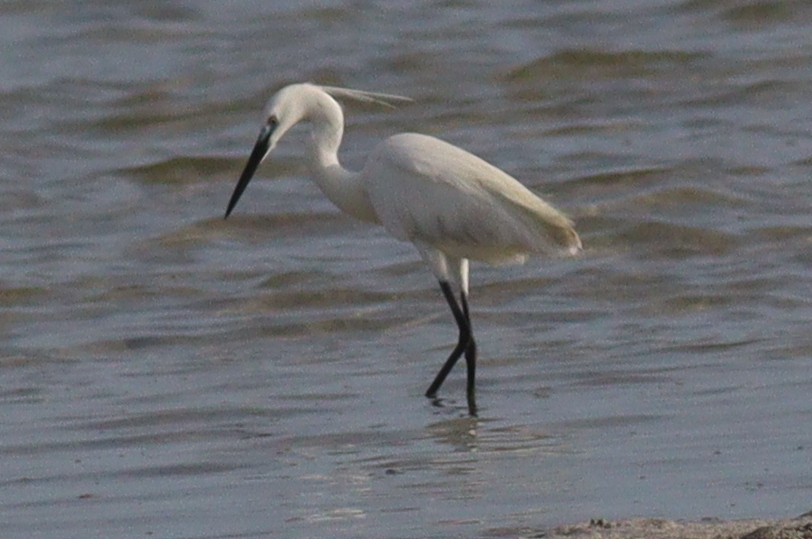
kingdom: Animalia
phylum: Chordata
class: Aves
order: Pelecaniformes
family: Ardeidae
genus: Egretta
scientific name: Egretta garzetta
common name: Little egret
